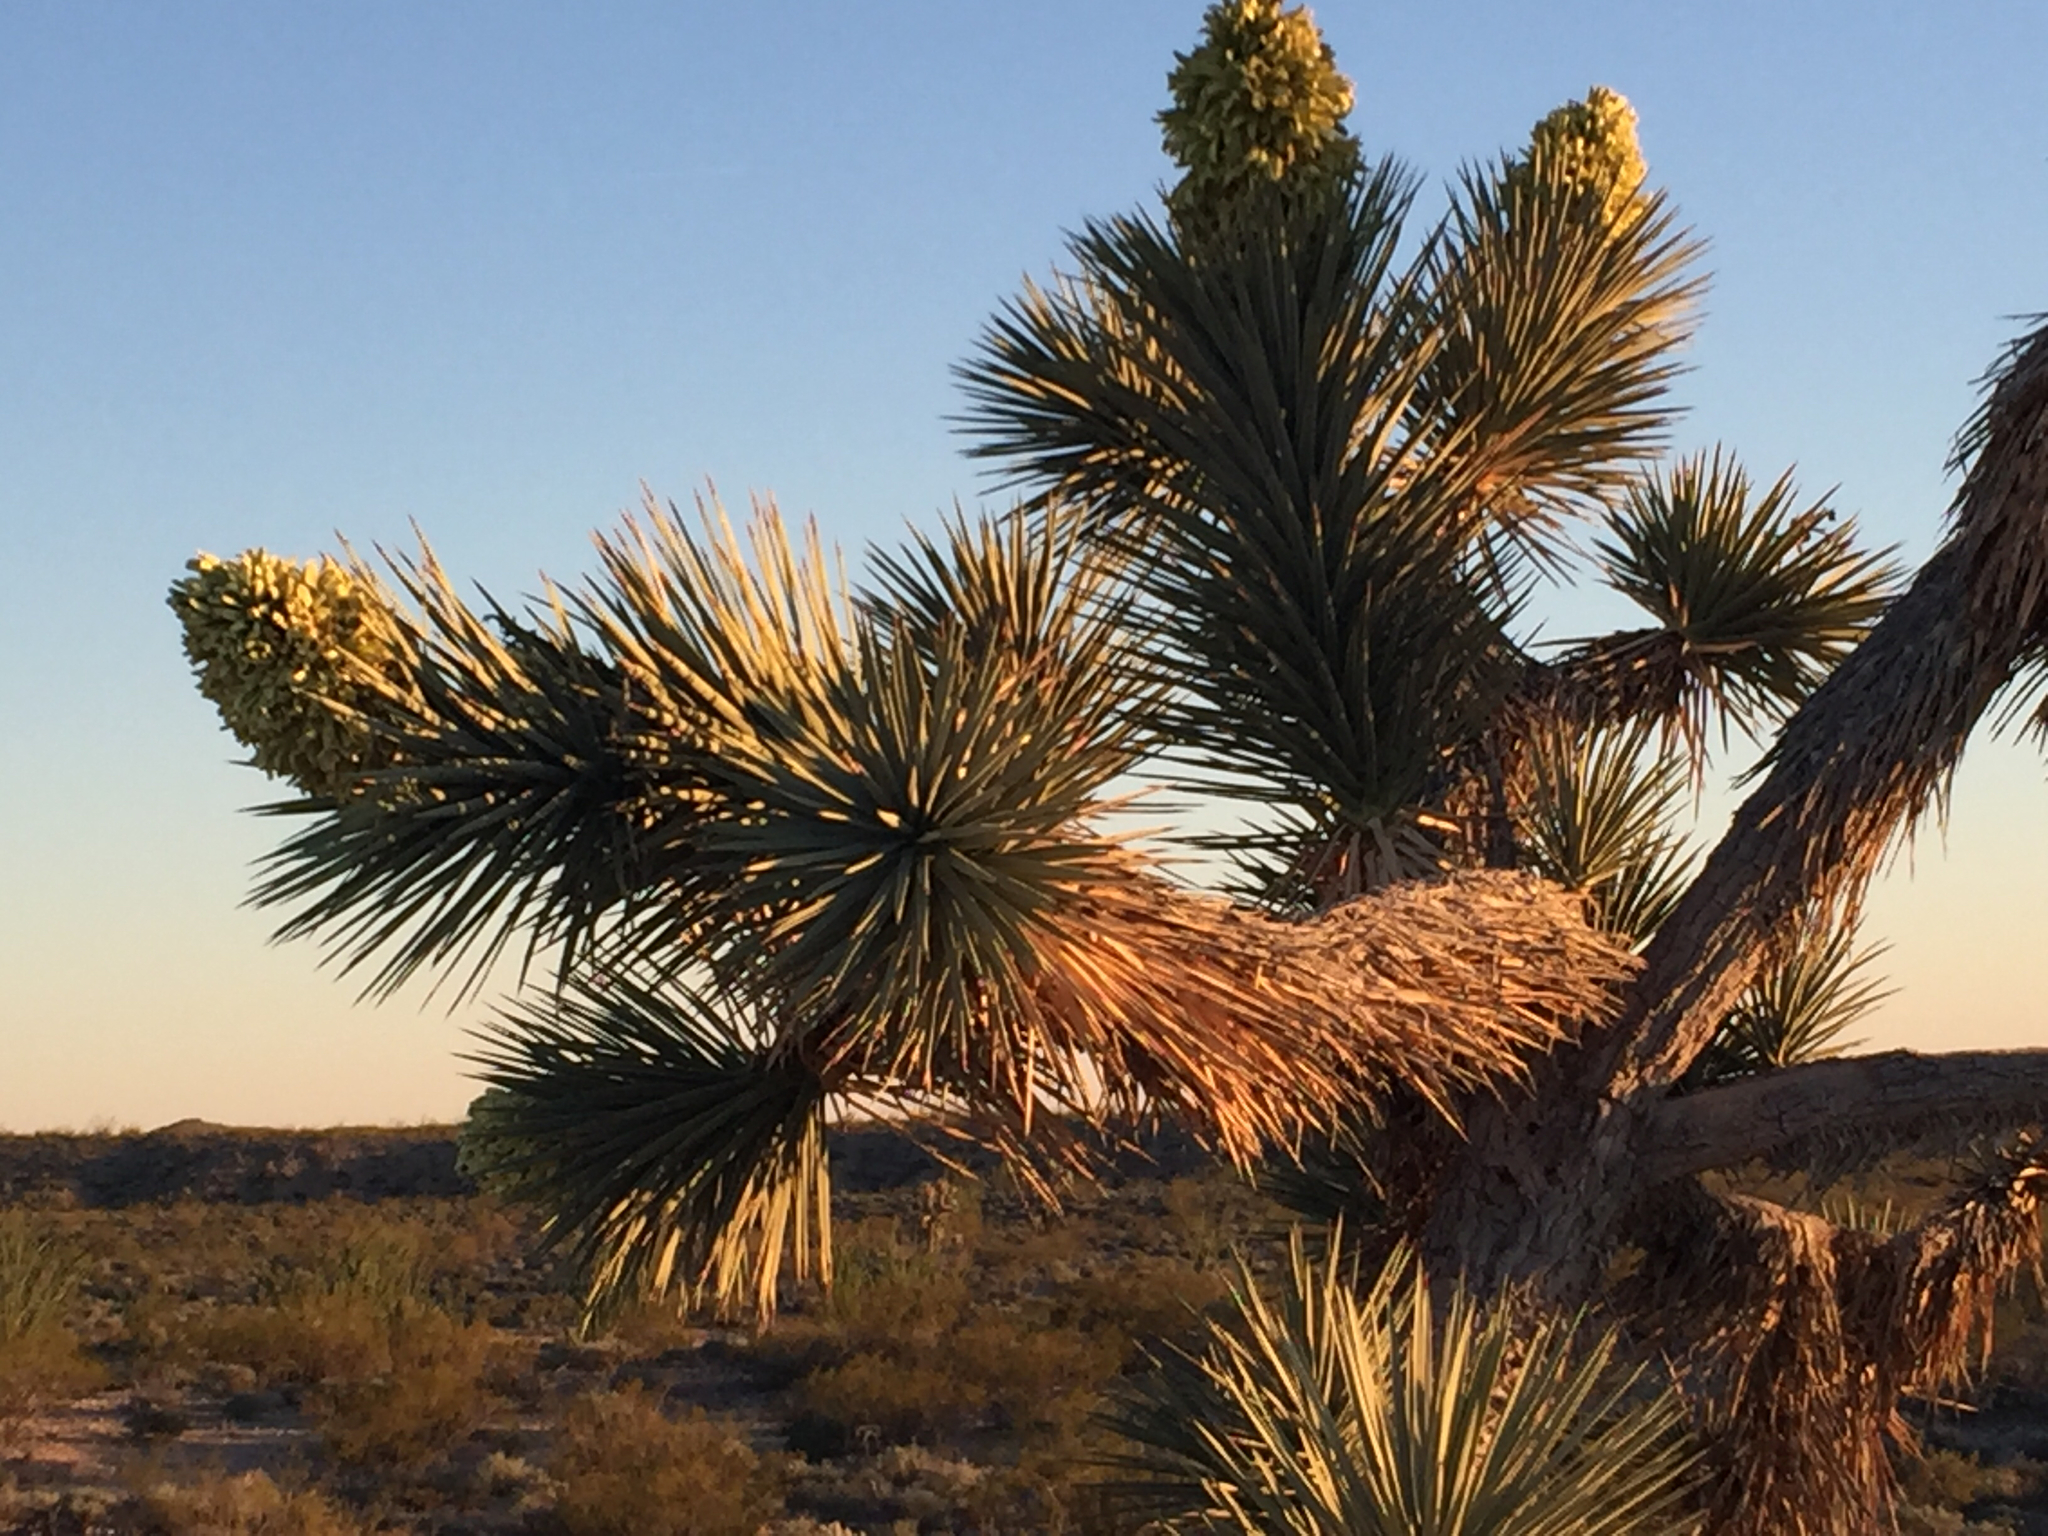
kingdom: Plantae
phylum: Tracheophyta
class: Liliopsida
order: Asparagales
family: Asparagaceae
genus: Yucca
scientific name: Yucca brevifolia
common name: Joshua tree
